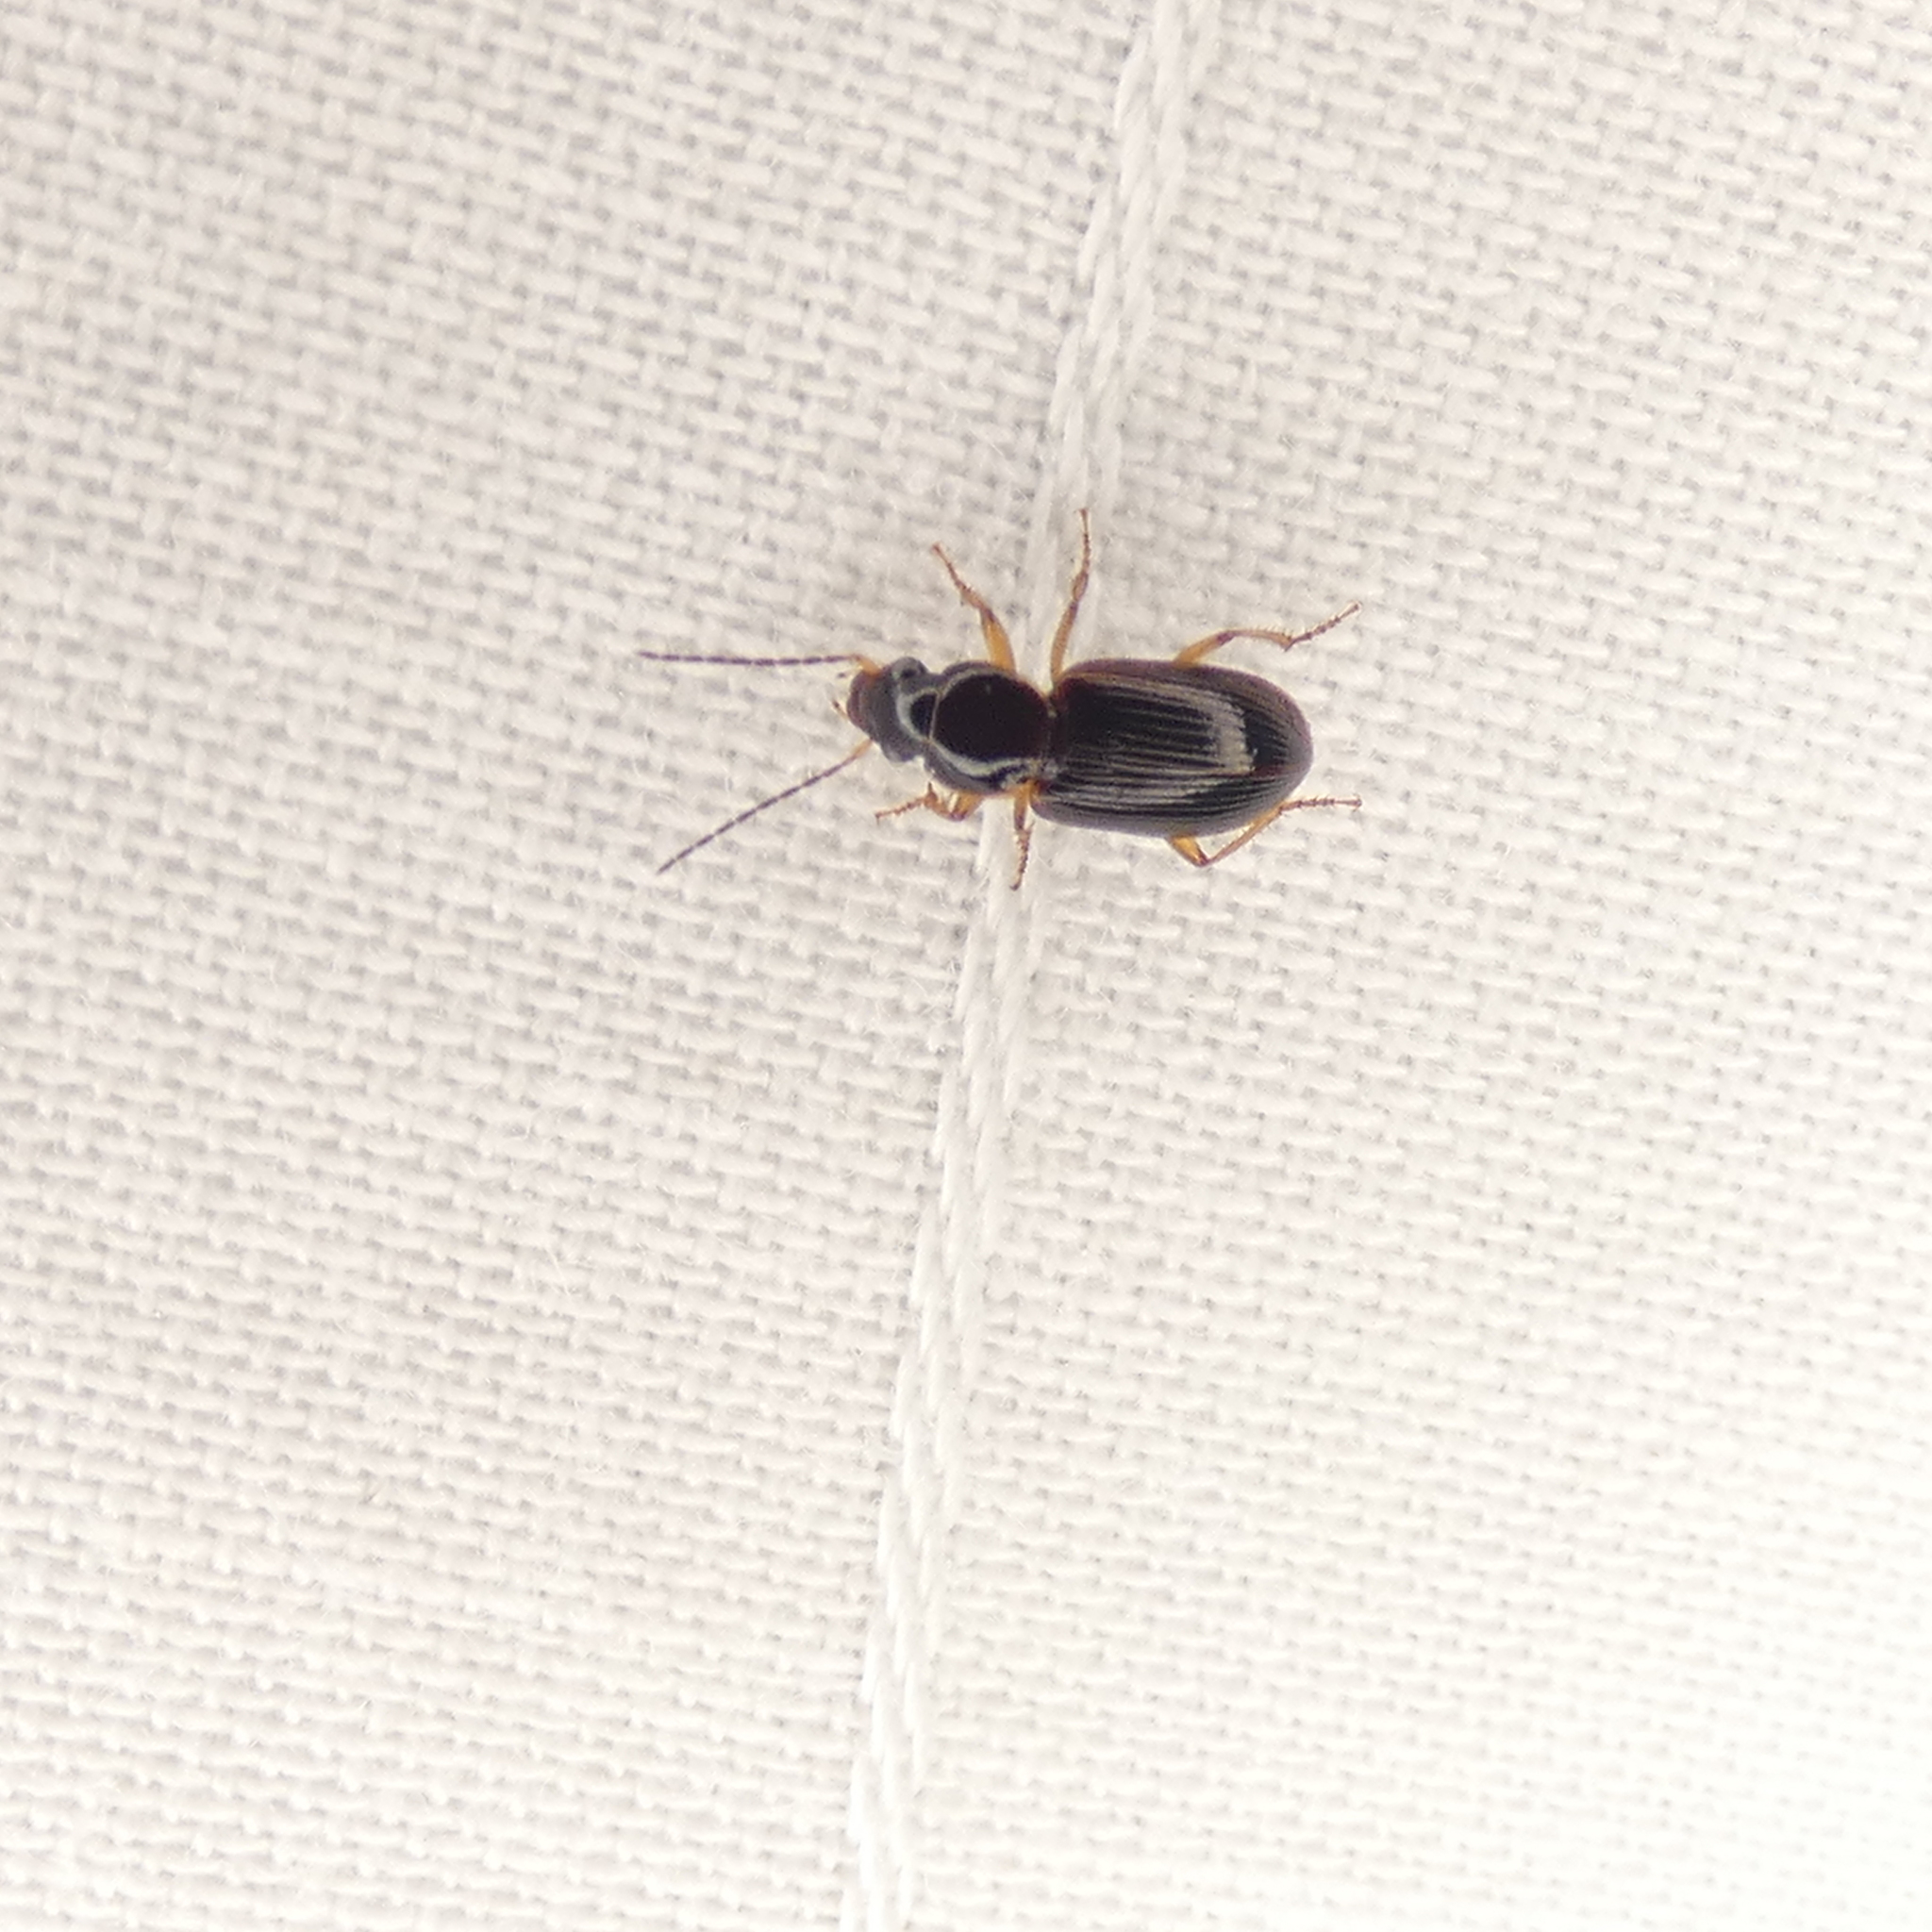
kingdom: Animalia
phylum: Arthropoda
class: Insecta
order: Coleoptera
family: Carabidae
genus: Stenolophus
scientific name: Stenolophus ochropezus
